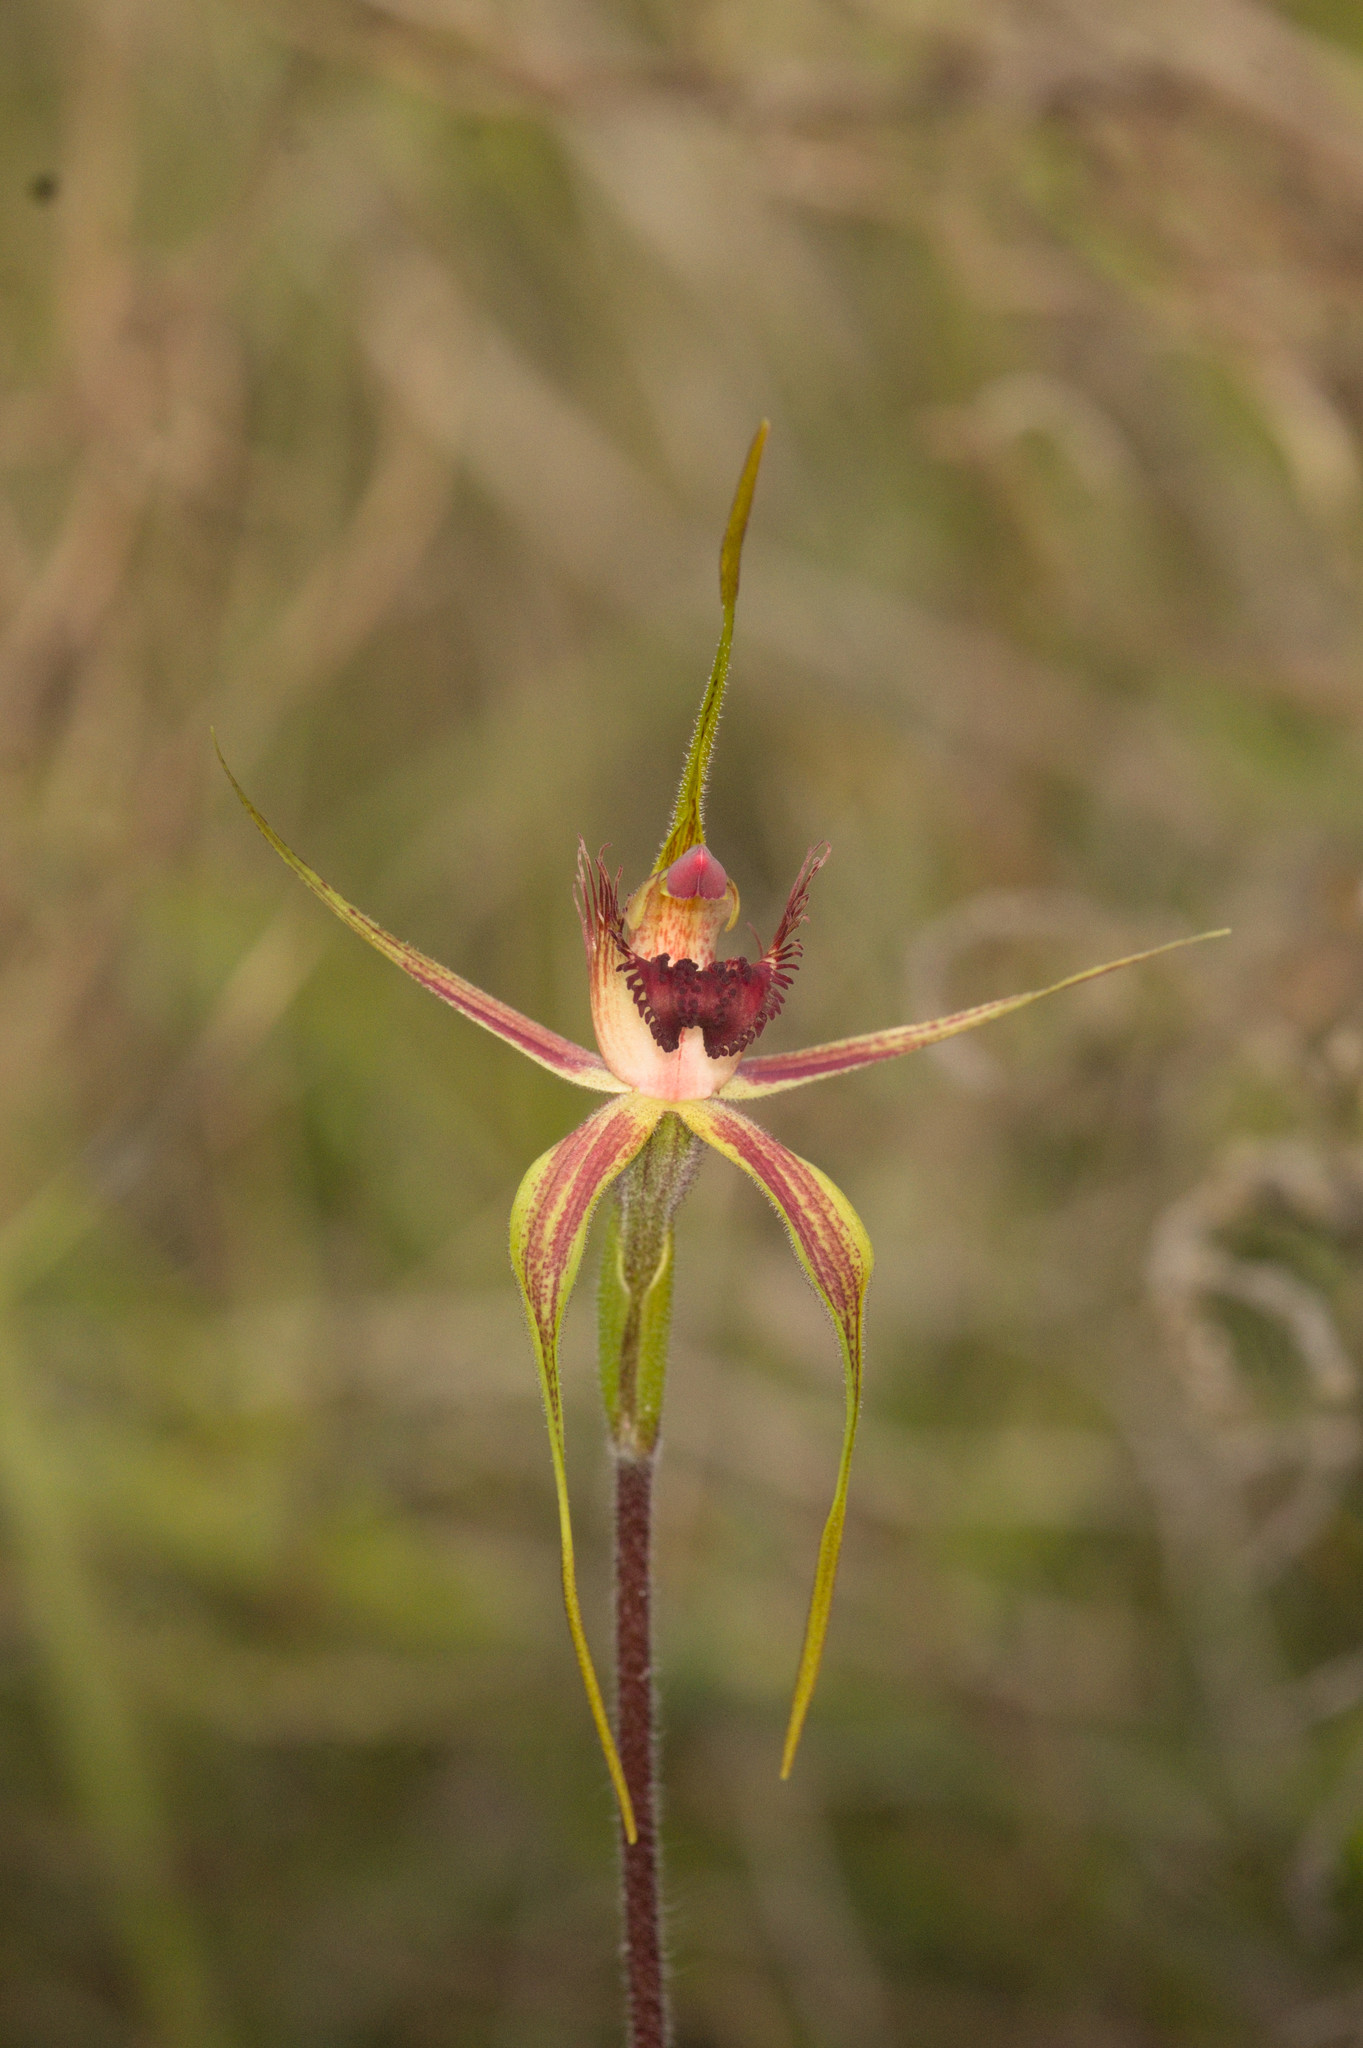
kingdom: Plantae
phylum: Tracheophyta
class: Liliopsida
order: Asparagales
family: Orchidaceae
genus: Caladenia
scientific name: Caladenia decora
